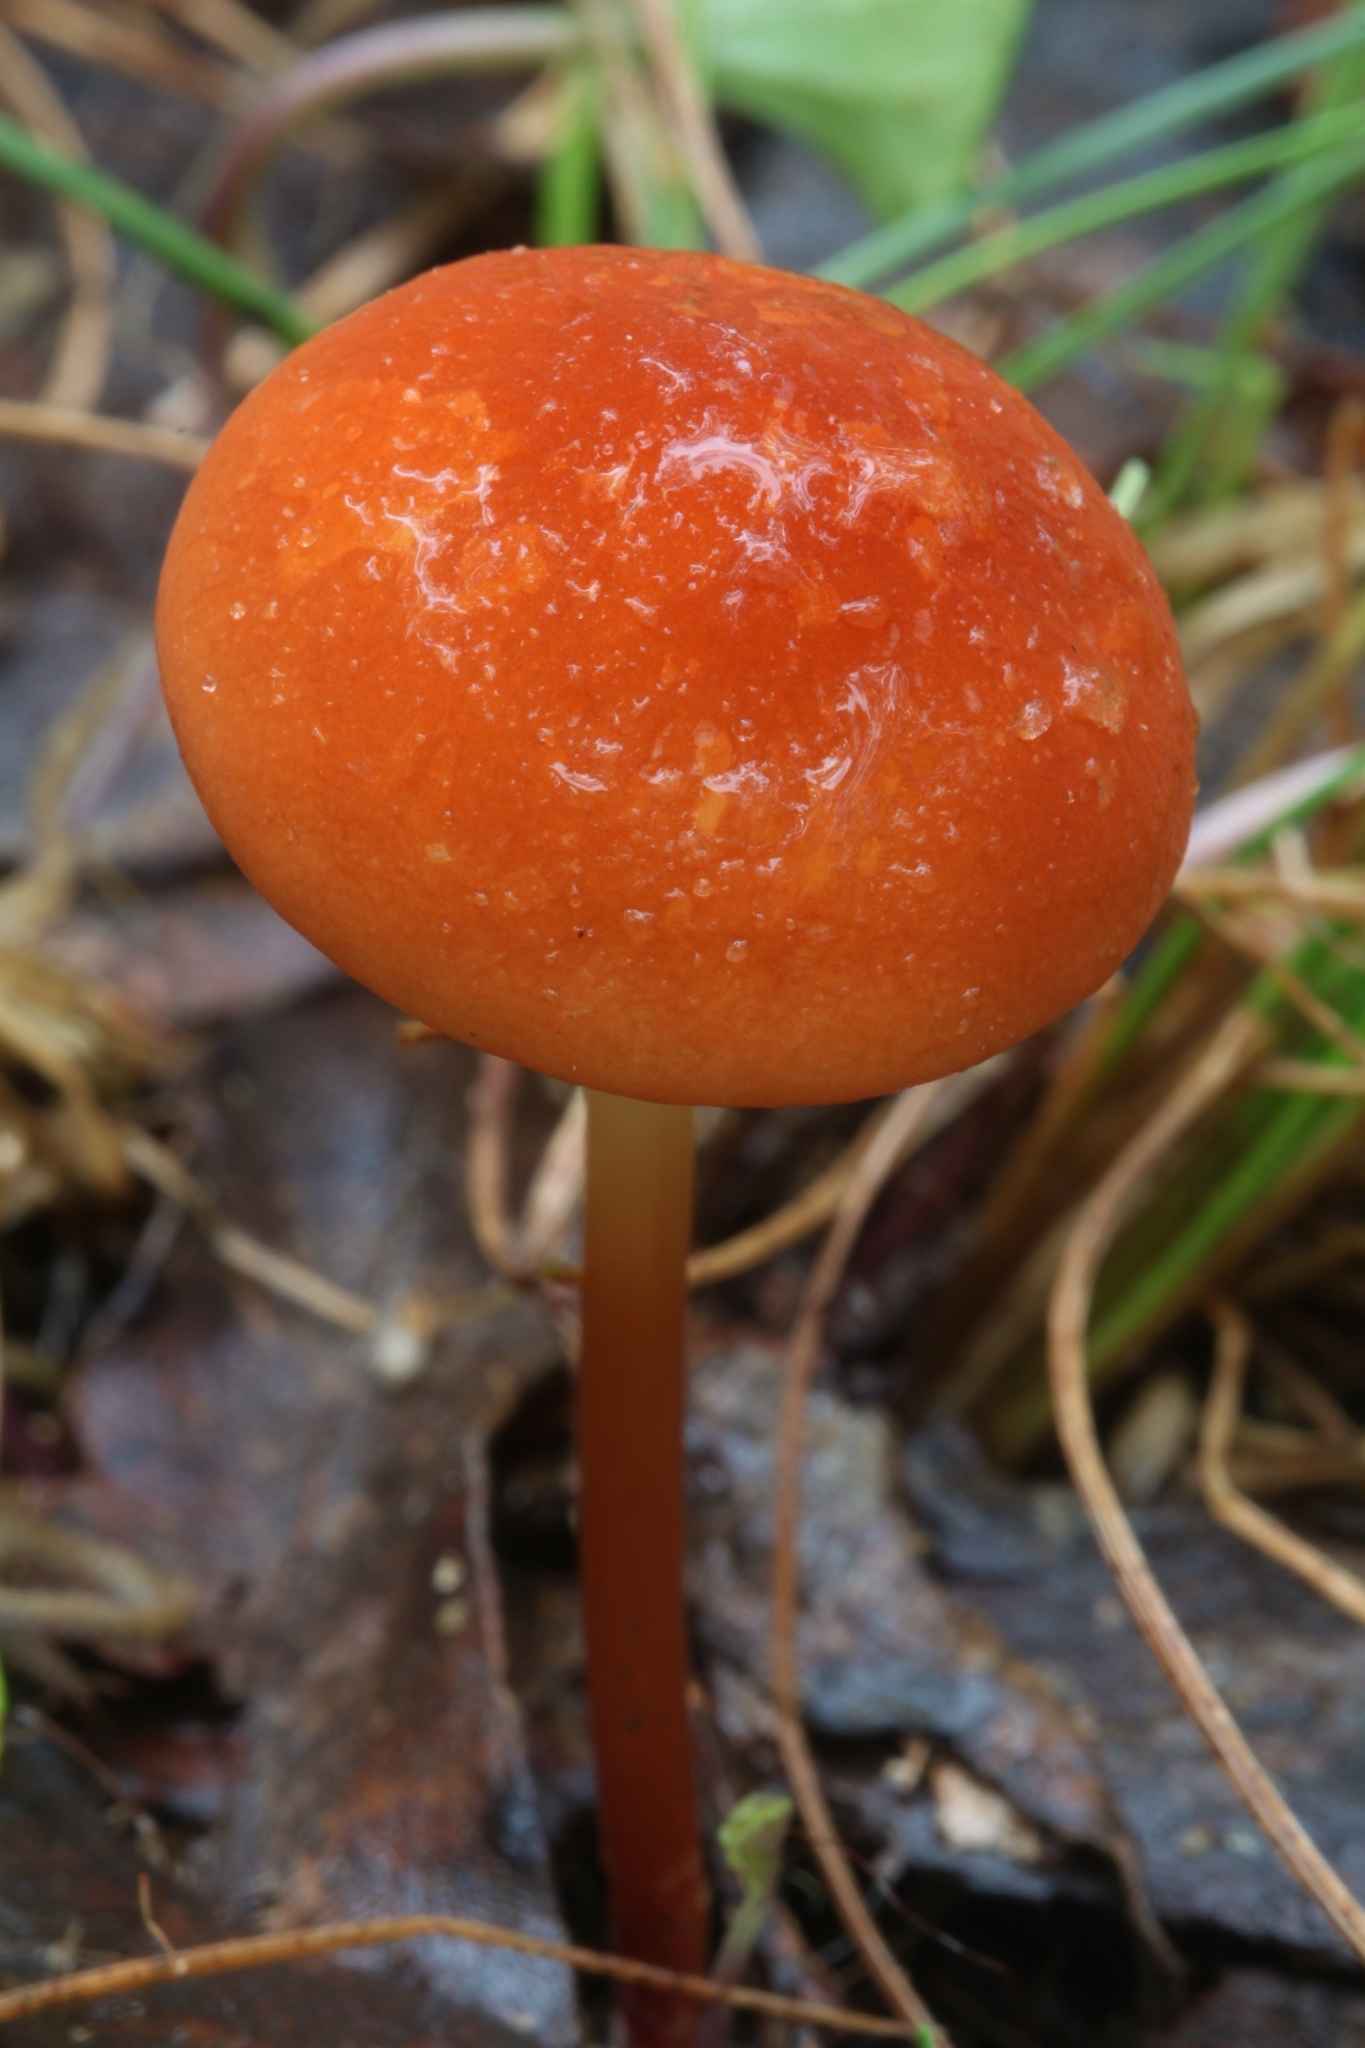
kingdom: Fungi
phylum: Basidiomycota
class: Agaricomycetes
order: Agaricales
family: Marasmiaceae
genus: Marasmius
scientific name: Marasmius elegans
